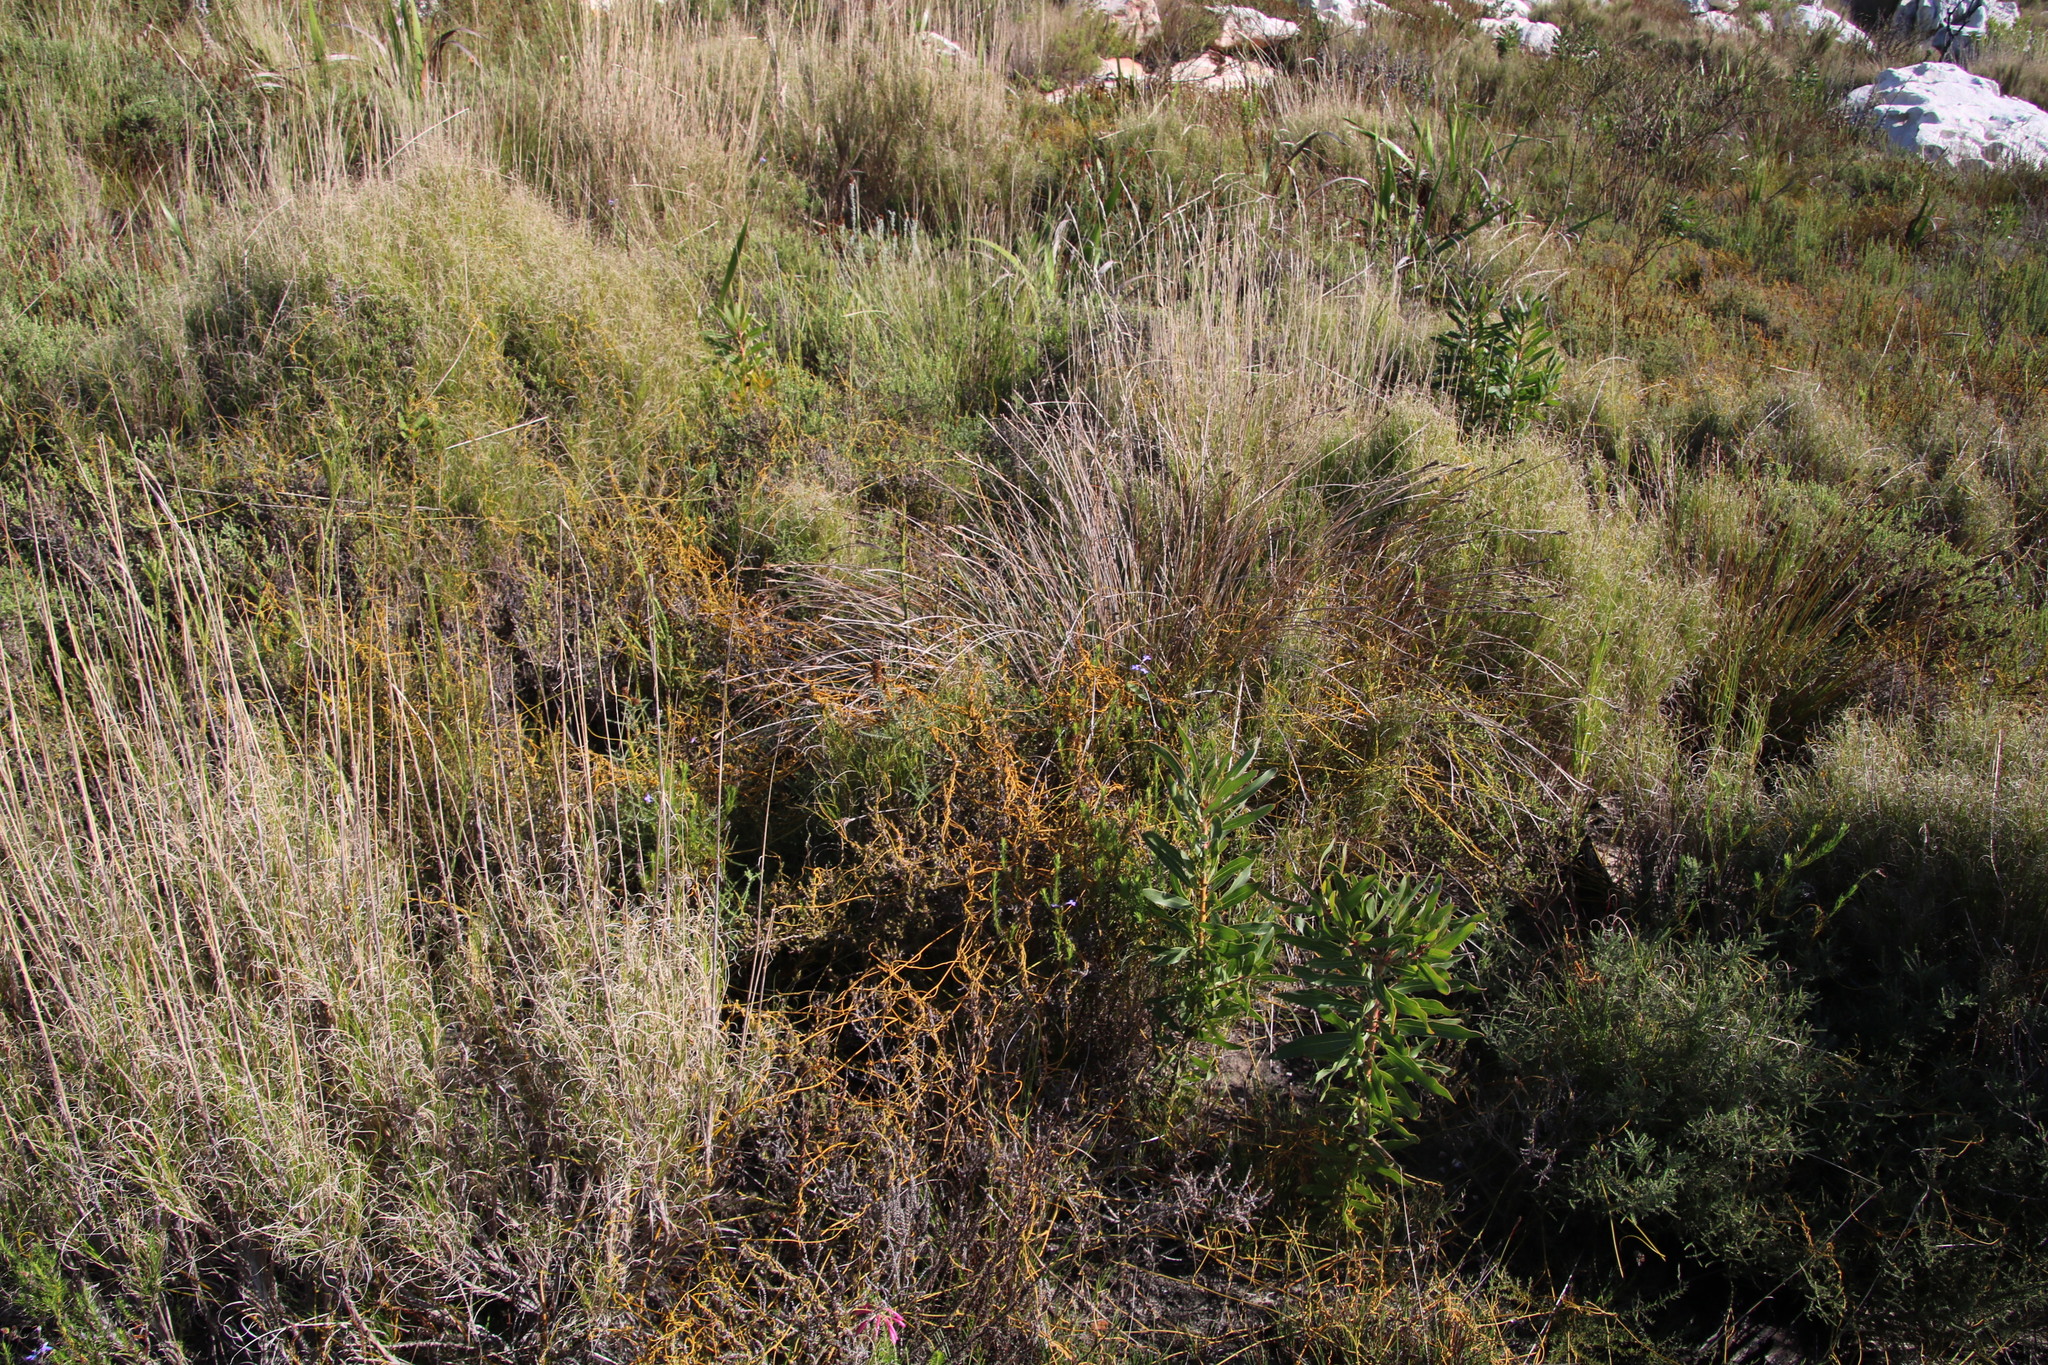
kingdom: Plantae
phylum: Tracheophyta
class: Magnoliopsida
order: Laurales
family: Lauraceae
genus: Cassytha
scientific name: Cassytha ciliolata
